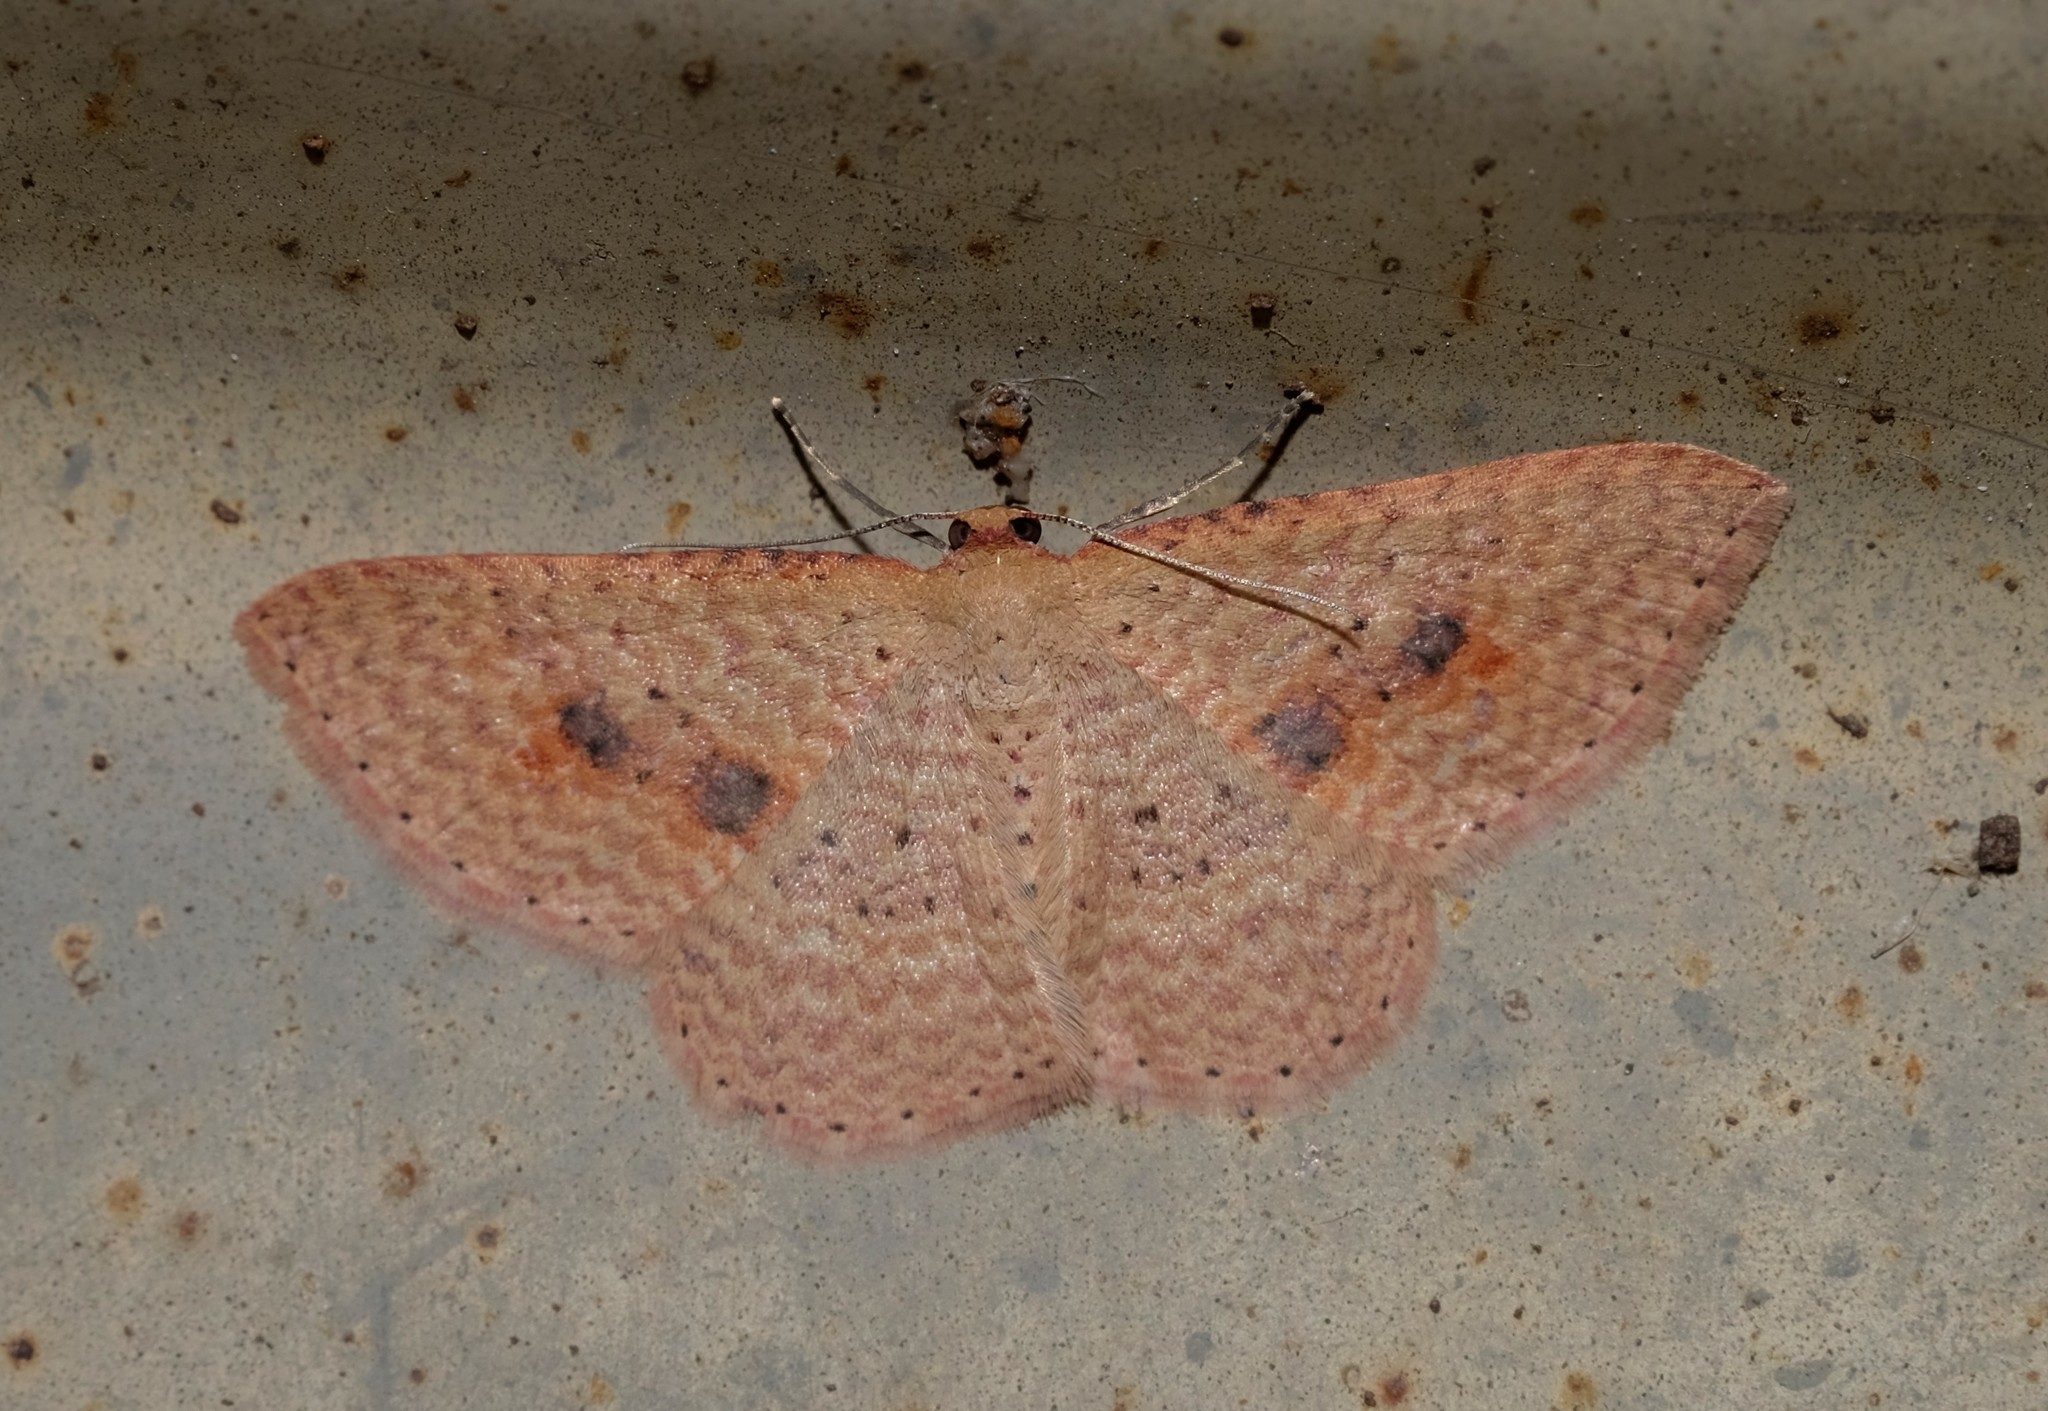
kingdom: Animalia
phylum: Arthropoda
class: Insecta
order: Lepidoptera
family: Geometridae
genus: Epicyme
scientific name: Epicyme rubropunctaria
